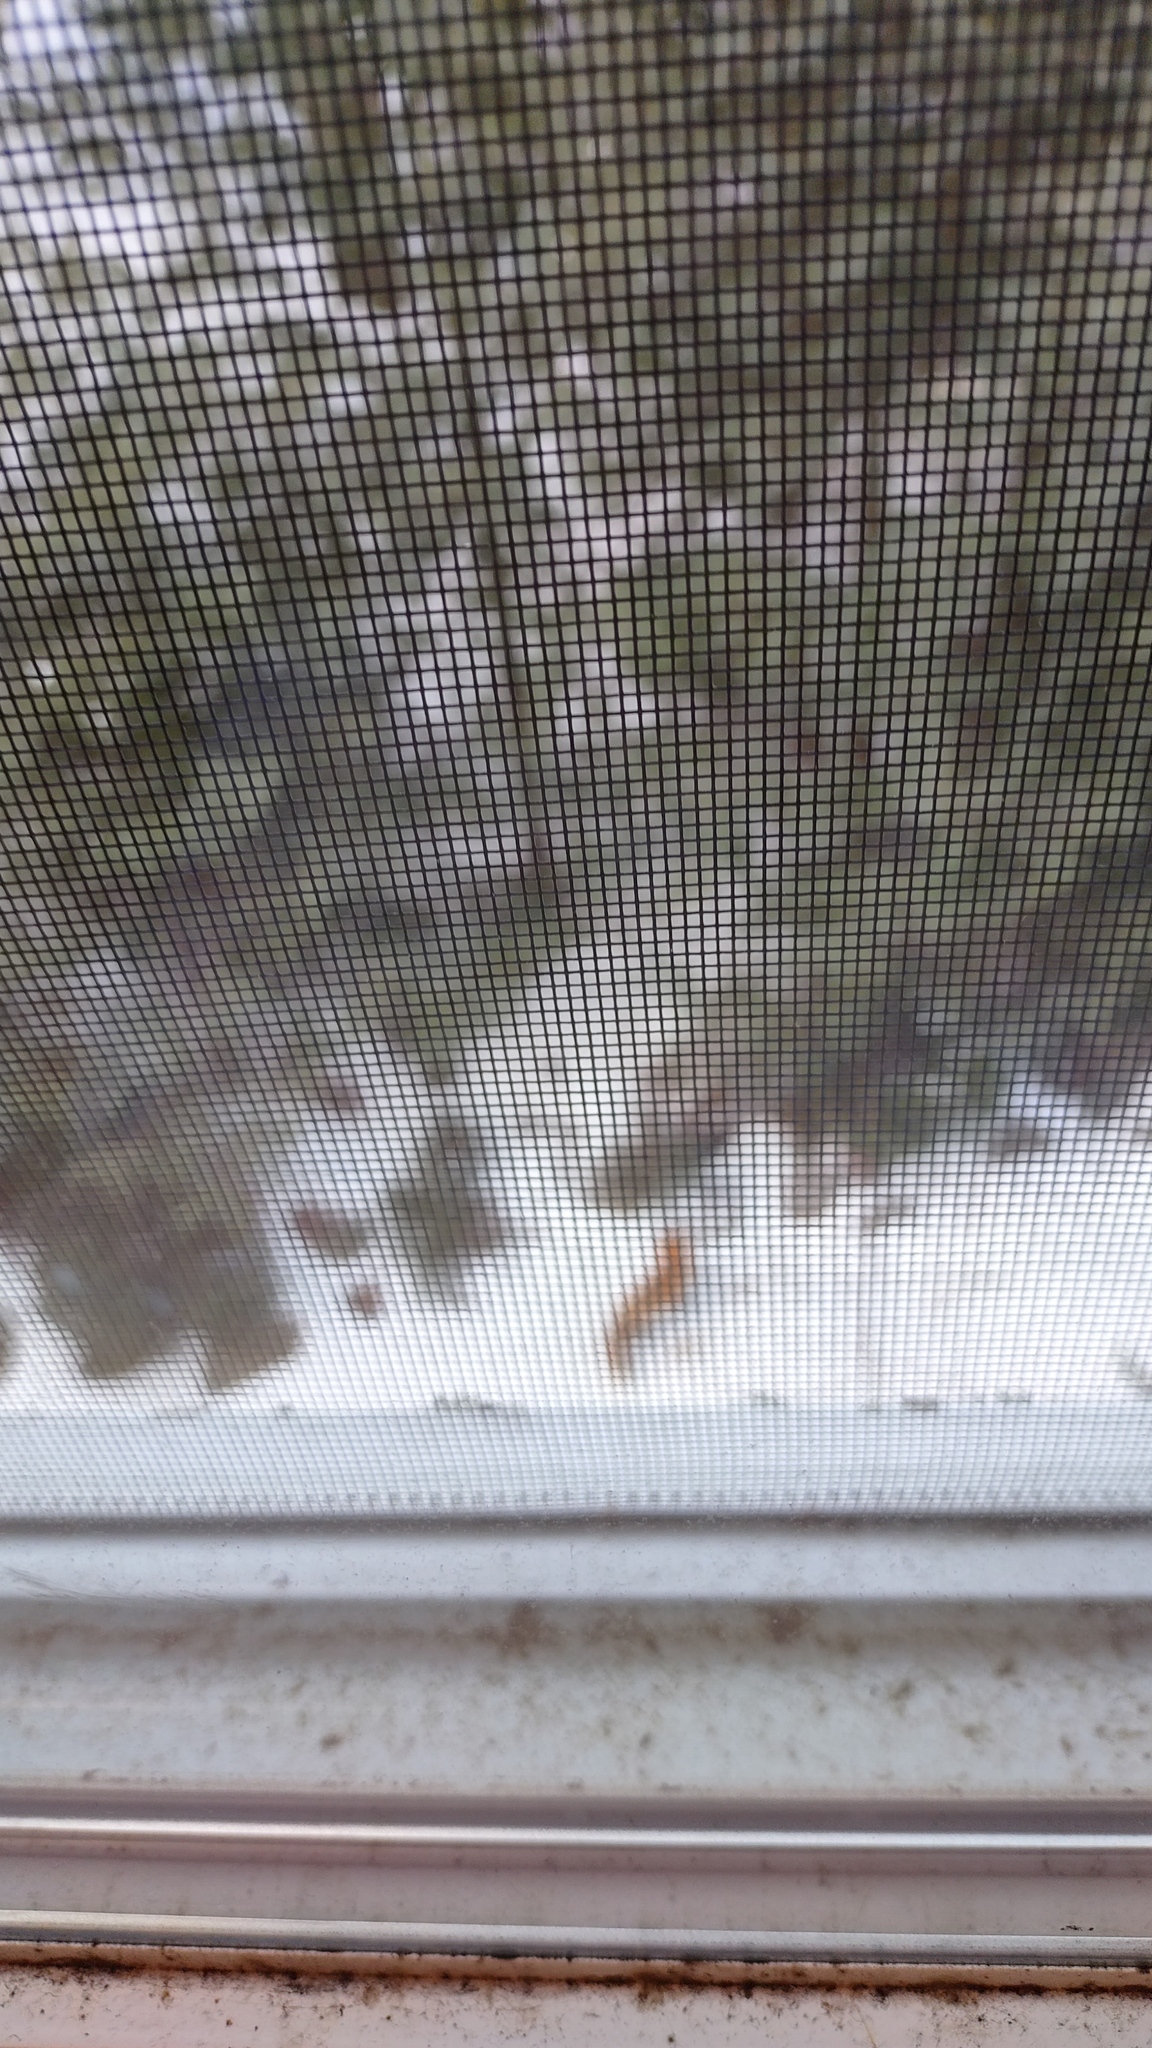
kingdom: Animalia
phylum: Chordata
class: Mammalia
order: Carnivora
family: Canidae
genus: Vulpes
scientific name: Vulpes vulpes
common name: Red fox
